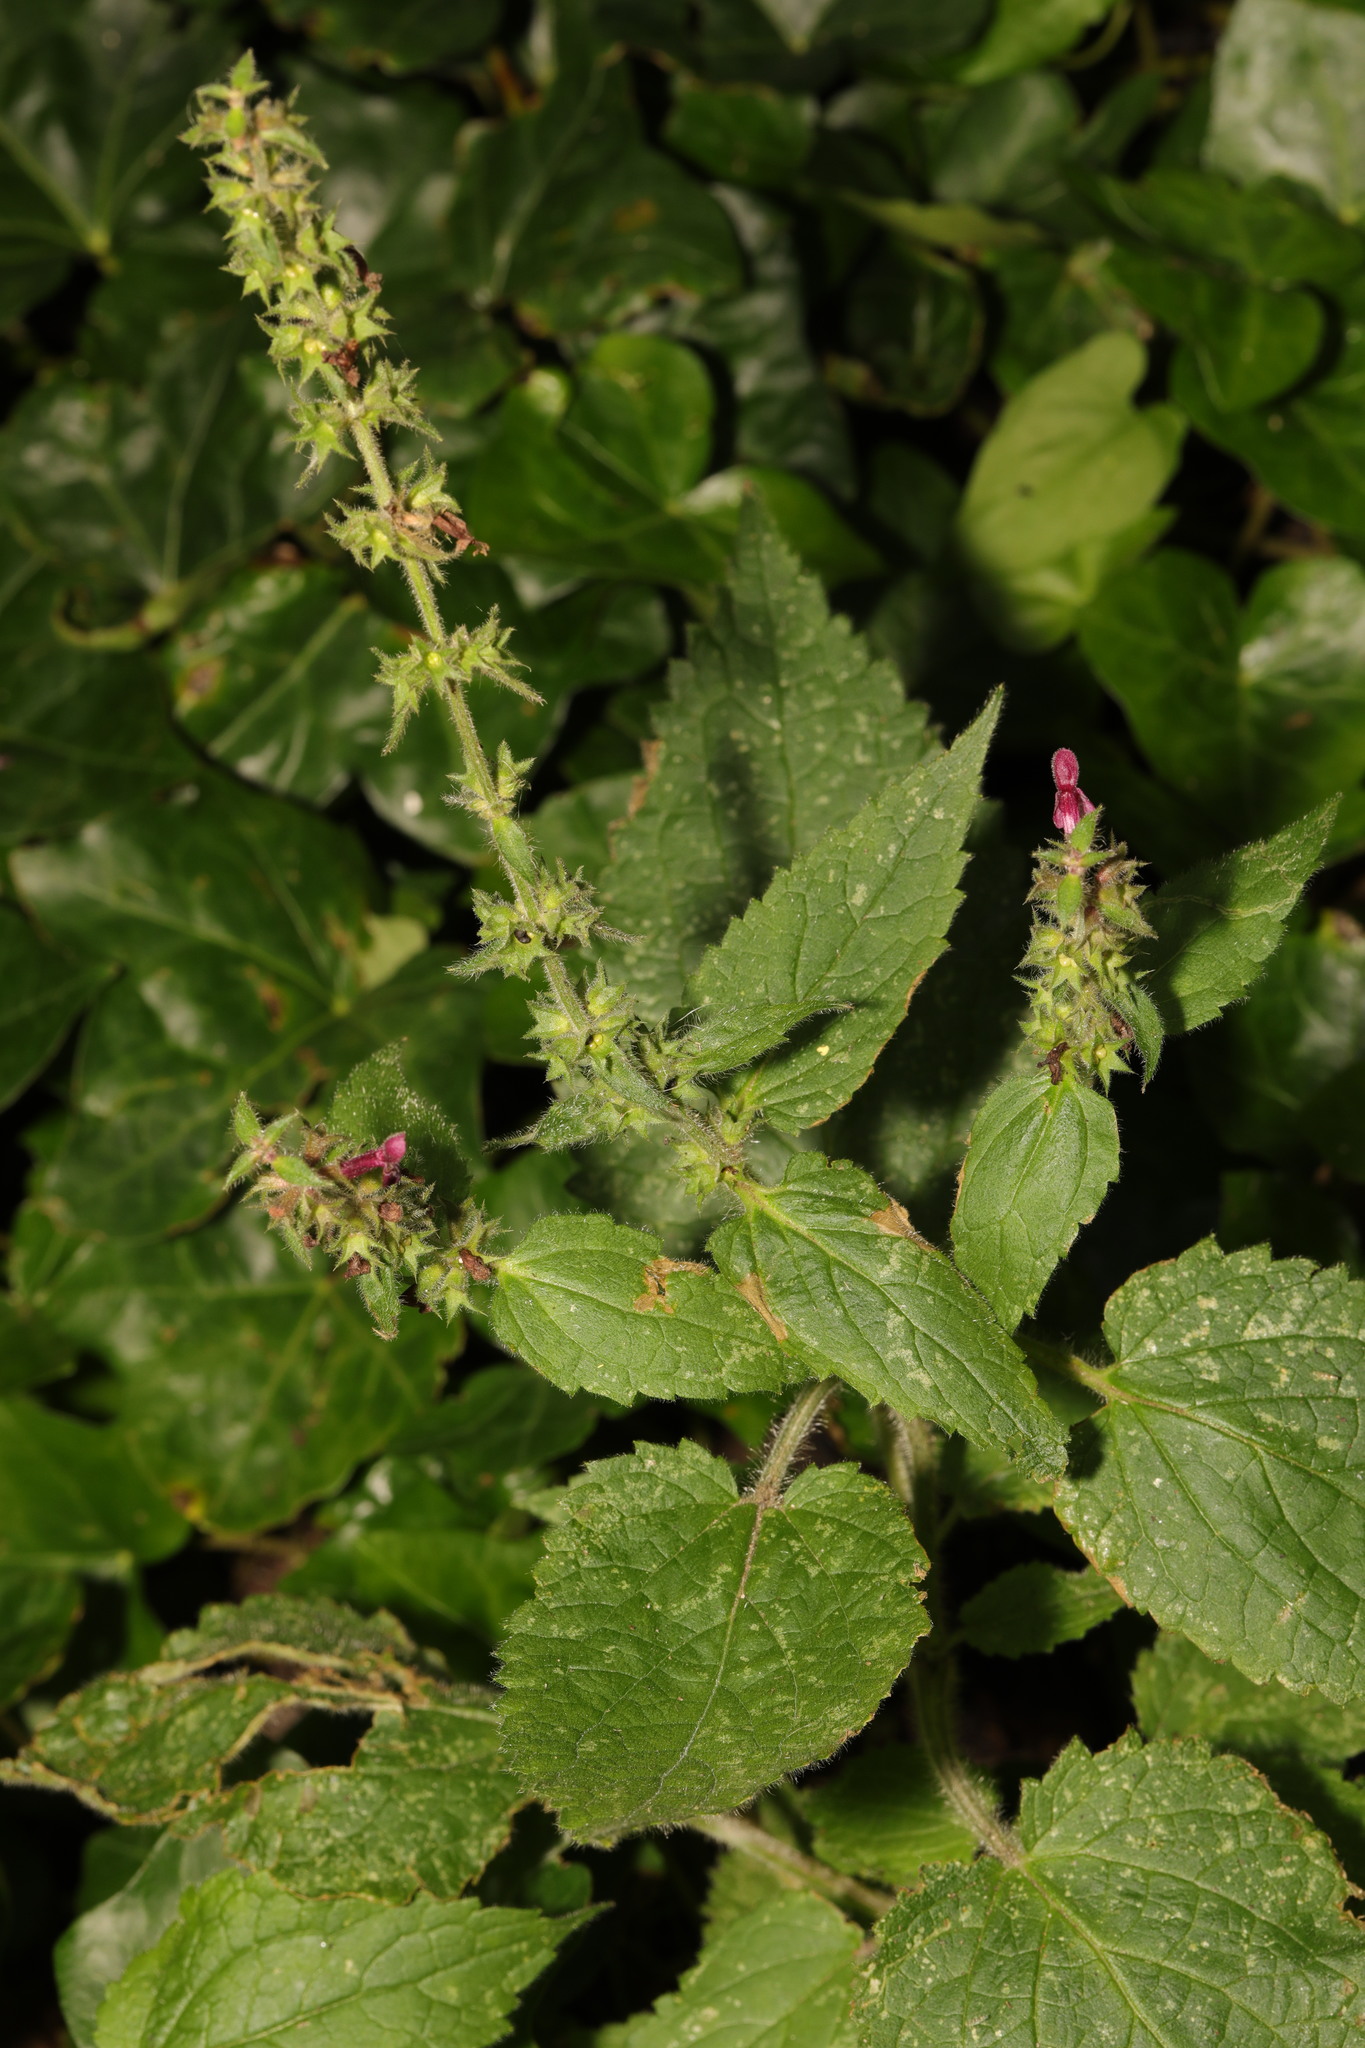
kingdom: Plantae
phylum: Tracheophyta
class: Magnoliopsida
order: Lamiales
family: Lamiaceae
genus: Stachys
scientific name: Stachys sylvatica
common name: Hedge woundwort
